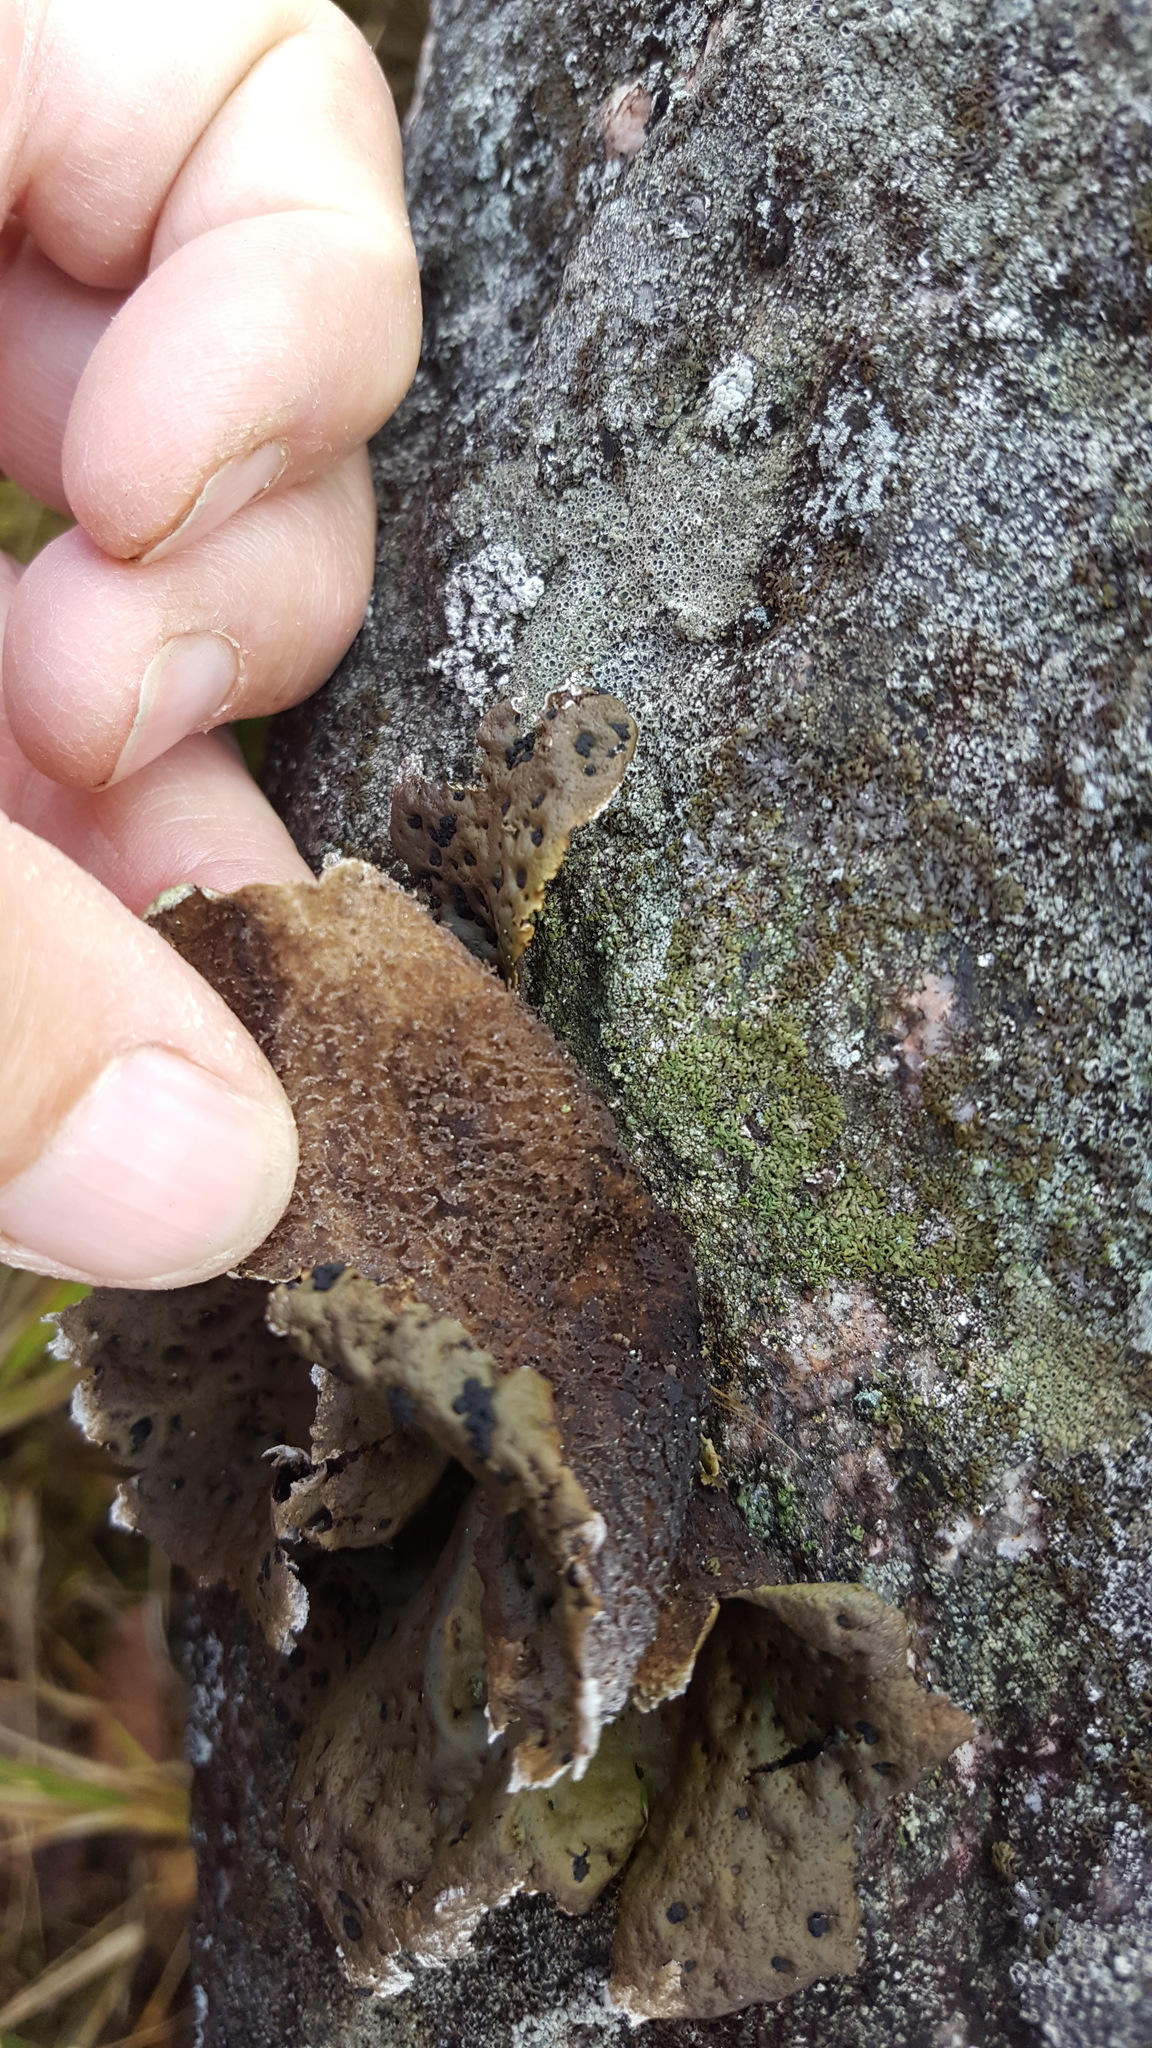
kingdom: Fungi
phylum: Ascomycota
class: Lecanoromycetes
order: Umbilicariales
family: Umbilicariaceae
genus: Umbilicaria
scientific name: Umbilicaria muhlenbergii
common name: Lesser rocktripe
